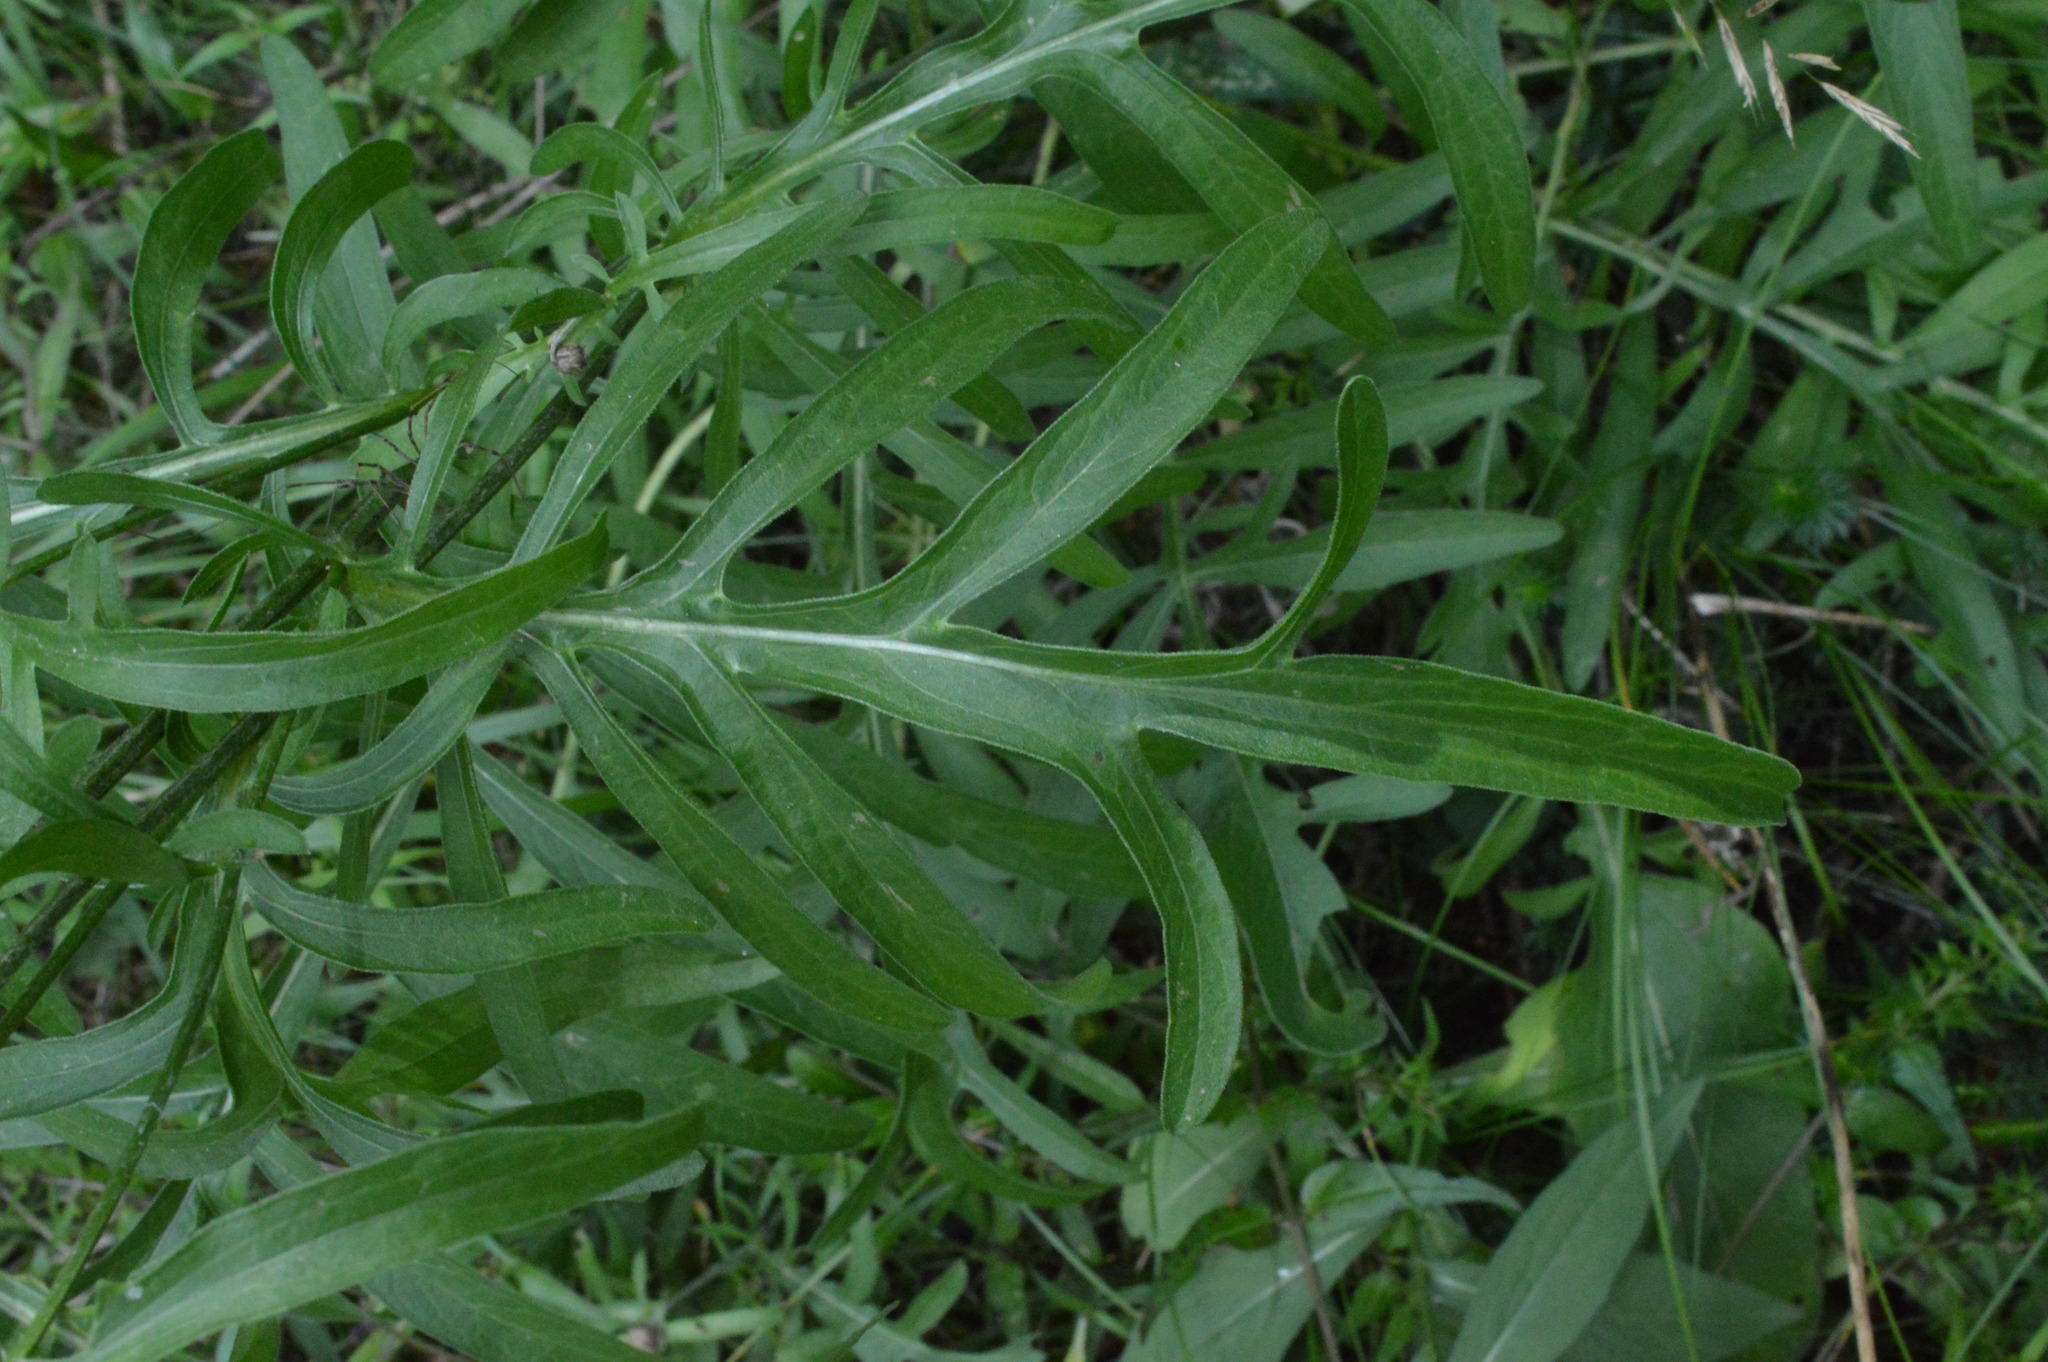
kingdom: Plantae
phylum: Tracheophyta
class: Magnoliopsida
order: Asterales
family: Asteraceae
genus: Centaurea
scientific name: Centaurea scabiosa
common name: Greater knapweed
